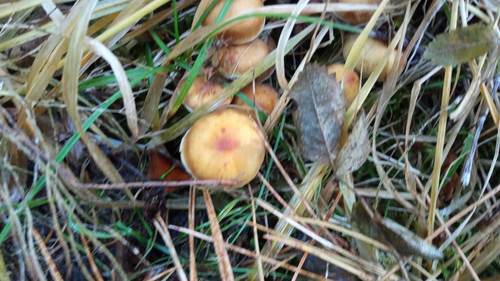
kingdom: Fungi
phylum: Basidiomycota
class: Agaricomycetes
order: Agaricales
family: Strophariaceae
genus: Hypholoma
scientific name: Hypholoma capnoides
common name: Conifer tuft
